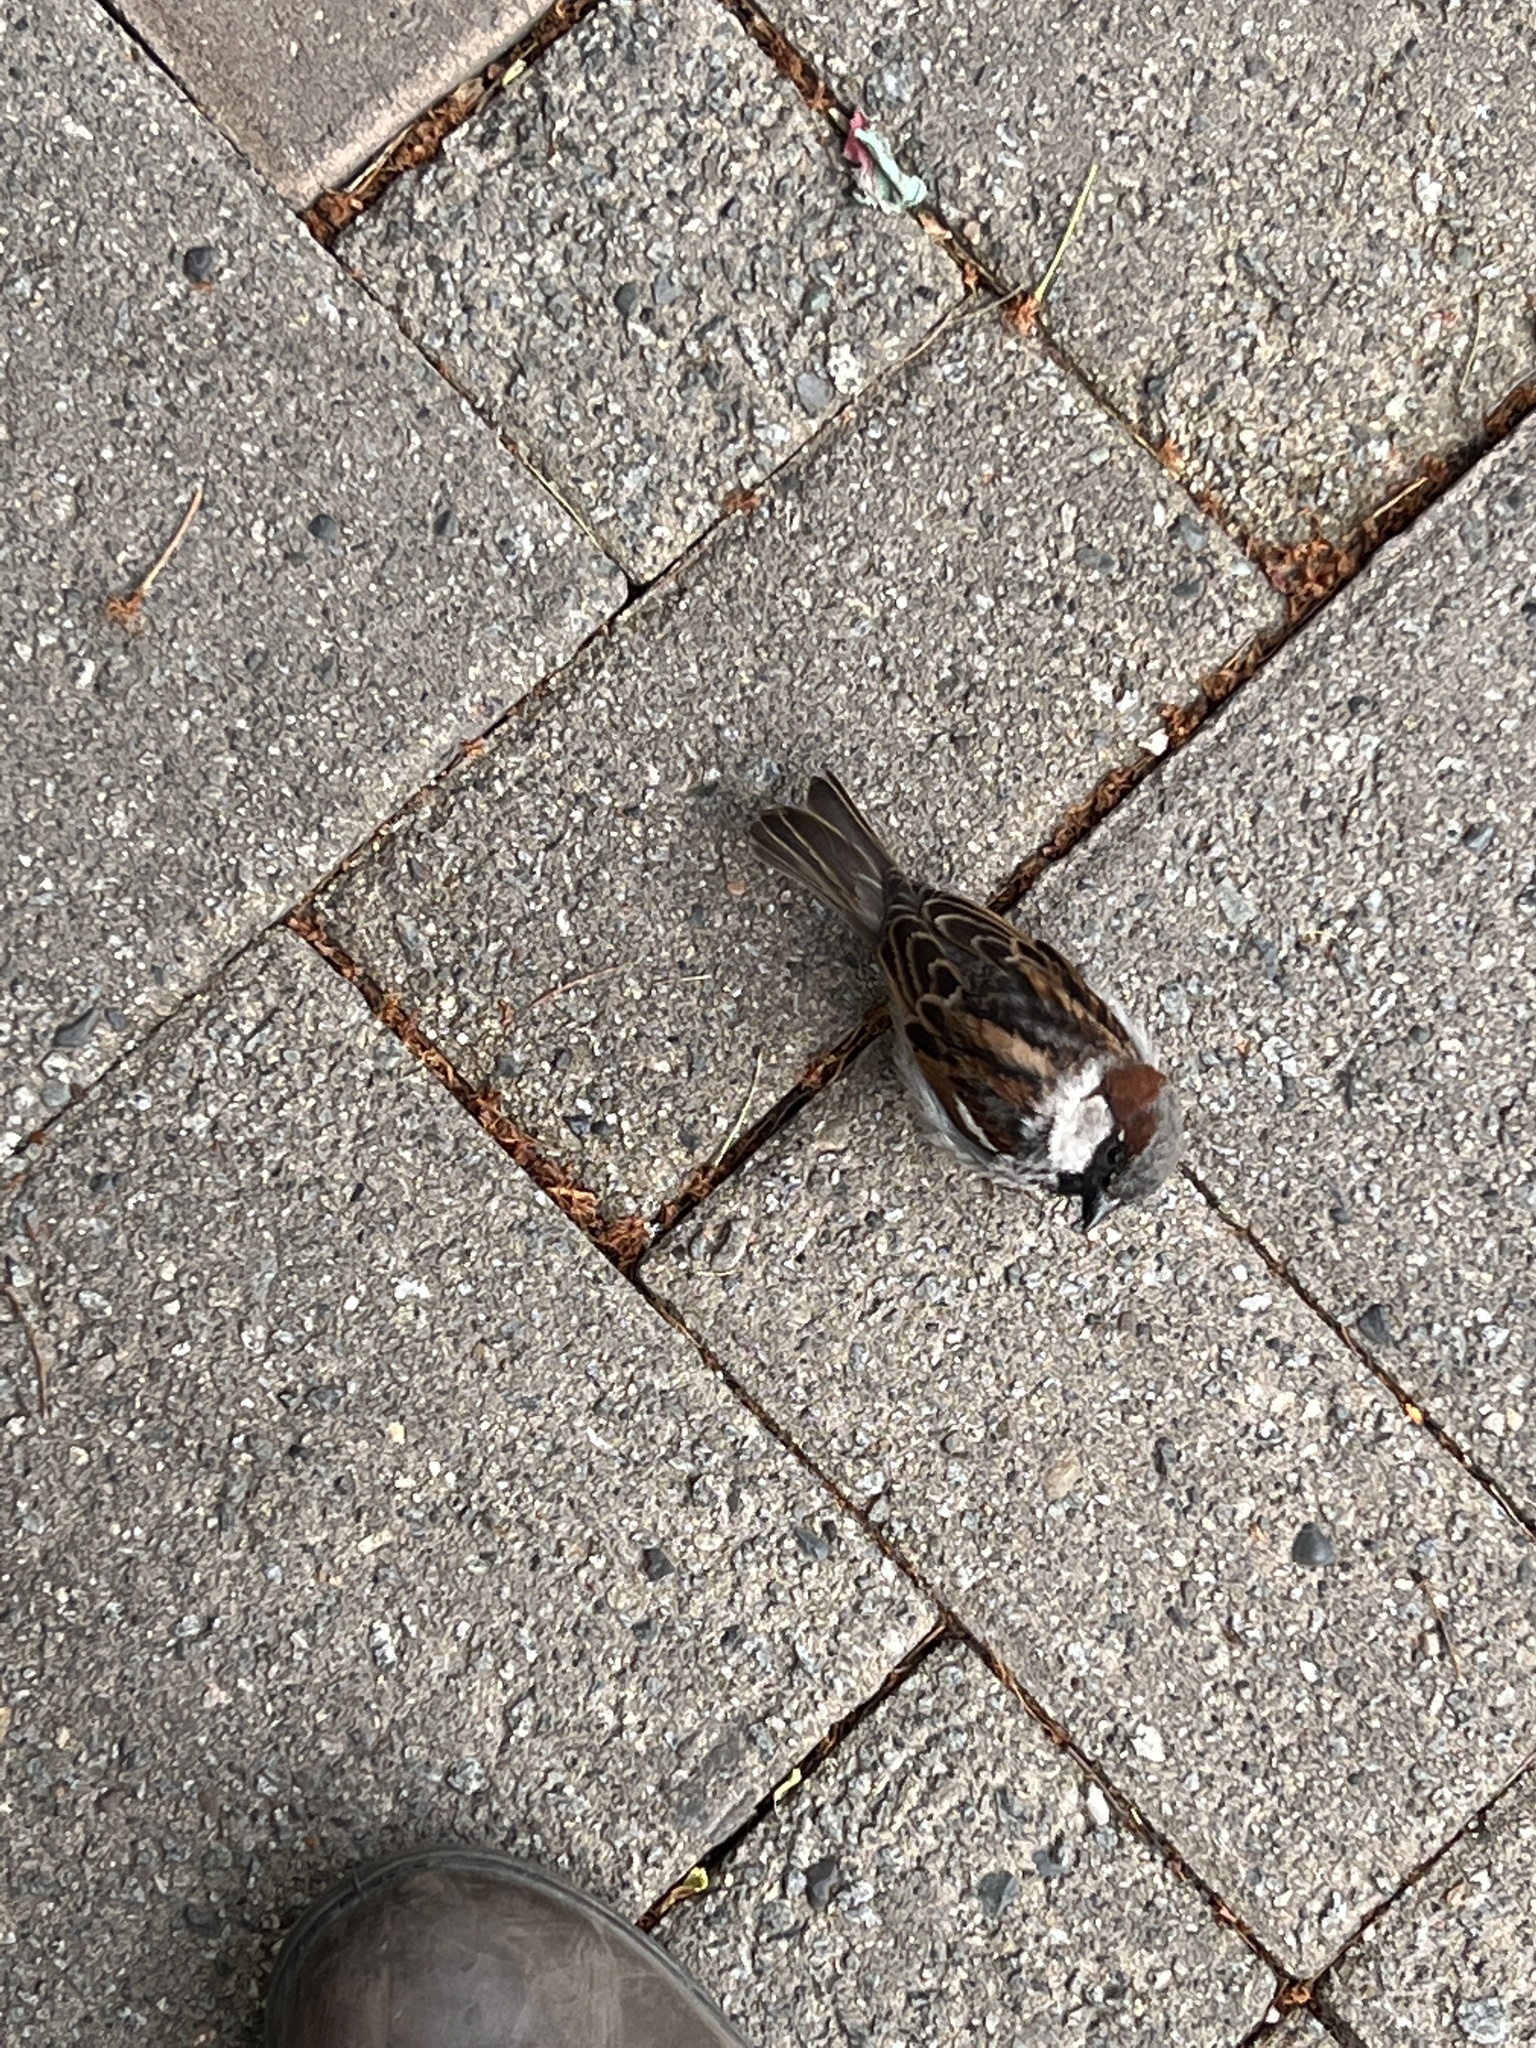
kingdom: Animalia
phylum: Chordata
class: Aves
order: Passeriformes
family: Passeridae
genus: Passer
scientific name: Passer domesticus
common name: House sparrow
